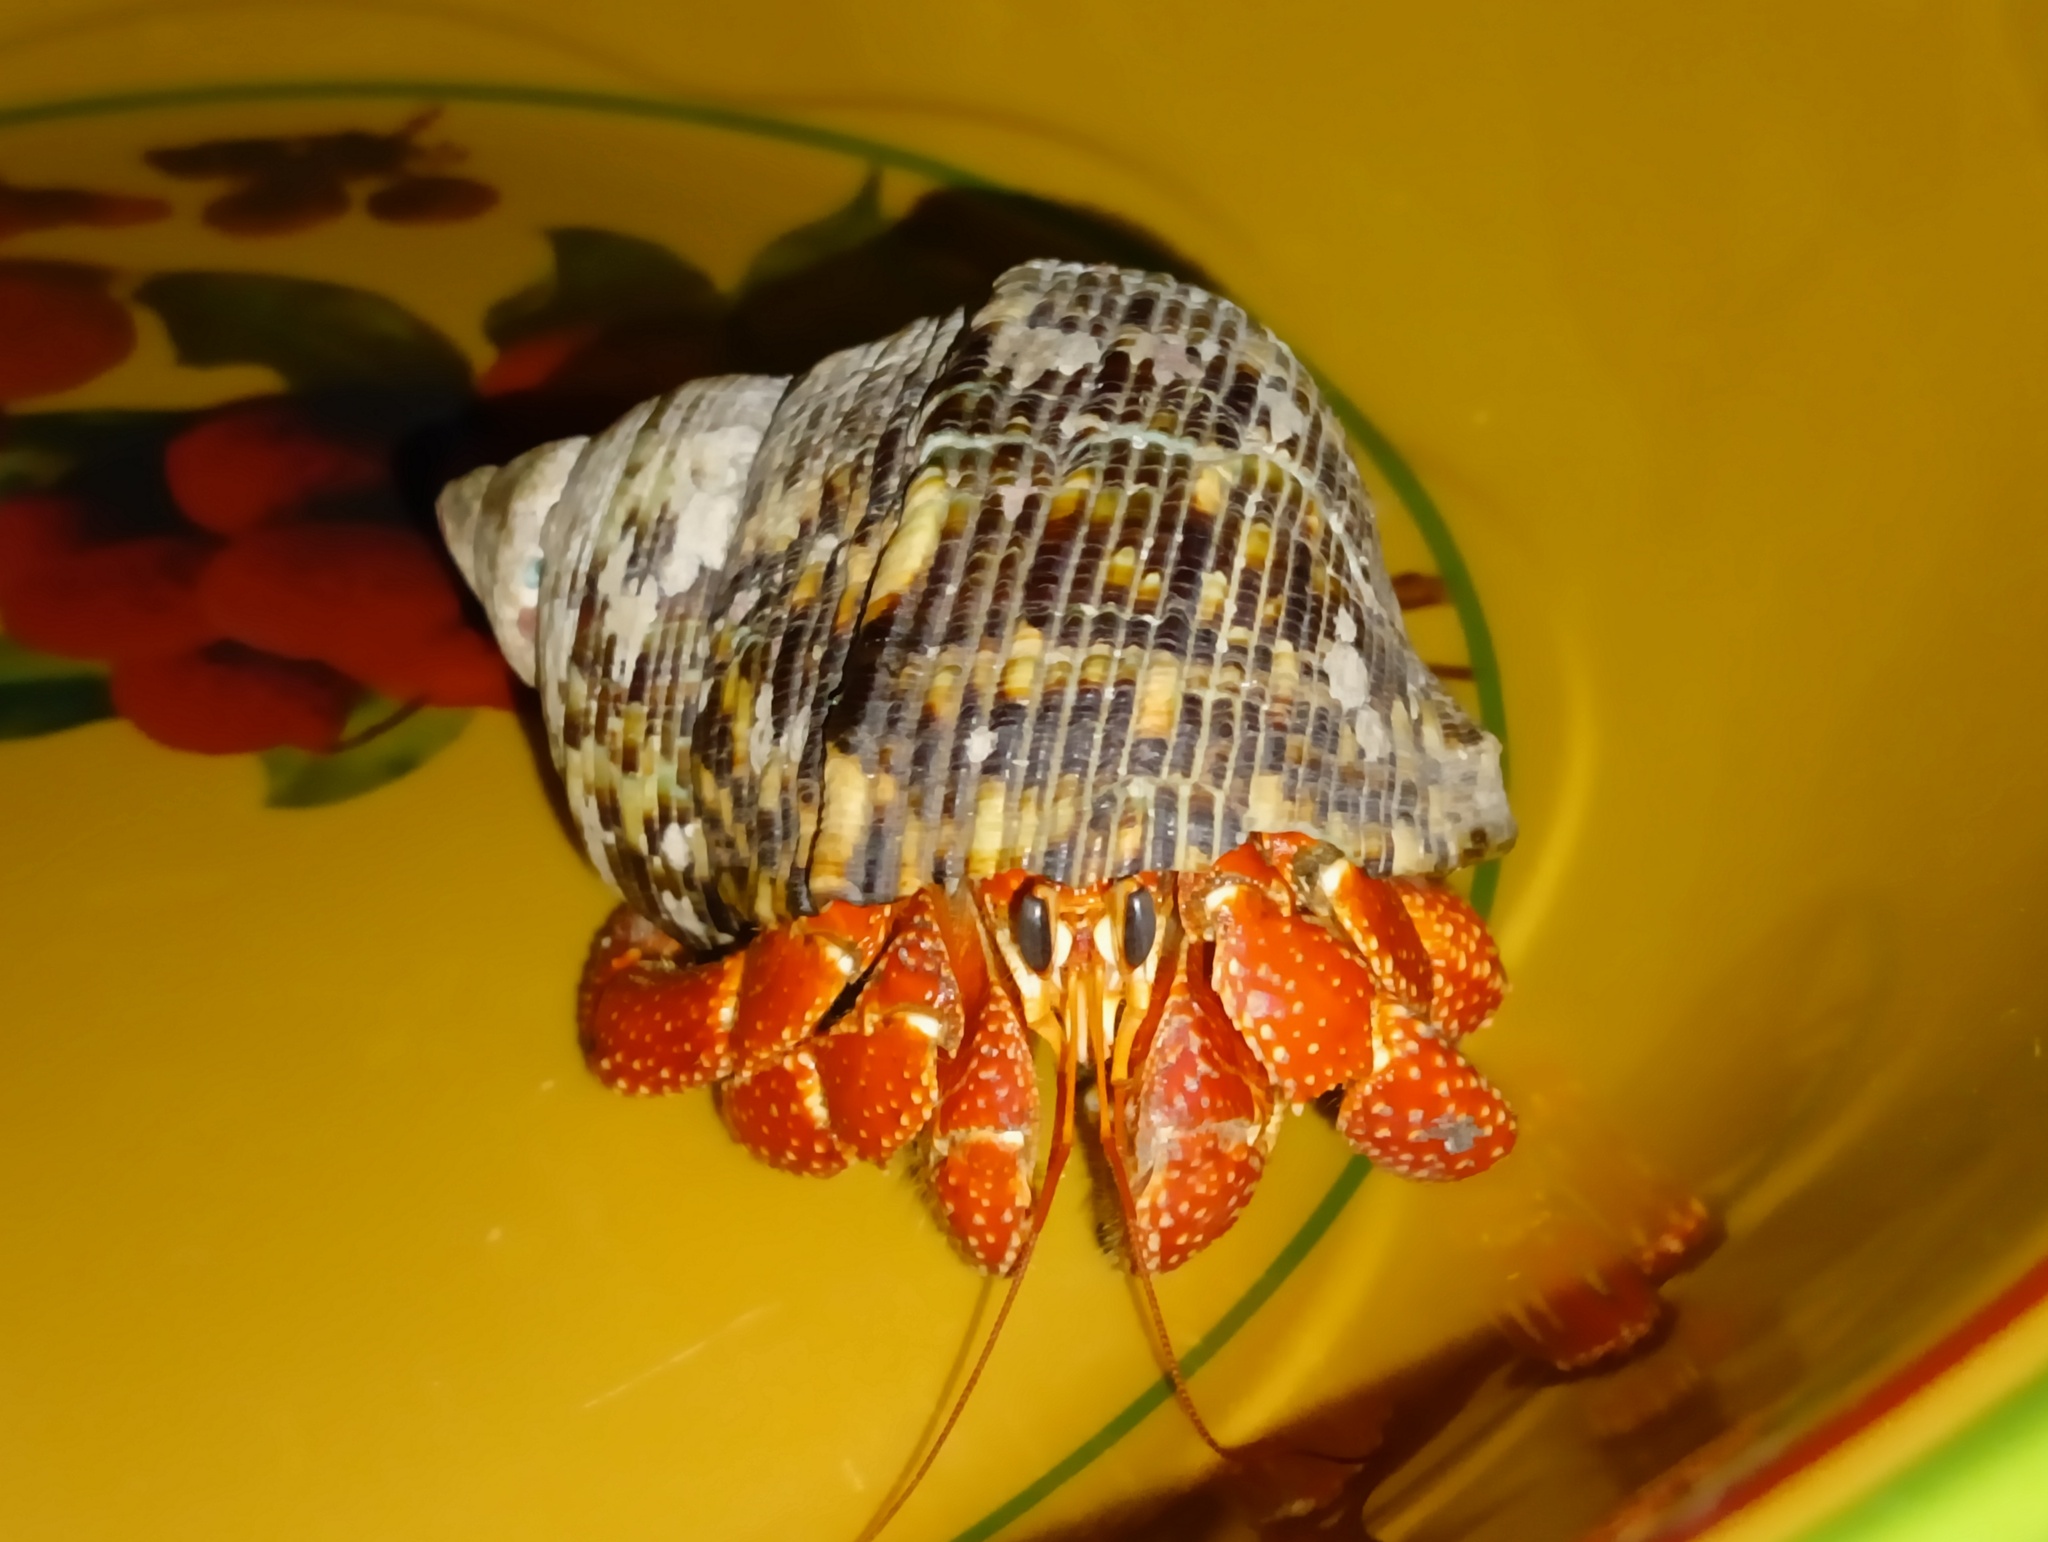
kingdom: Animalia
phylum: Arthropoda
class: Malacostraca
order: Decapoda
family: Coenobitidae
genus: Coenobita
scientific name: Coenobita perlatus
